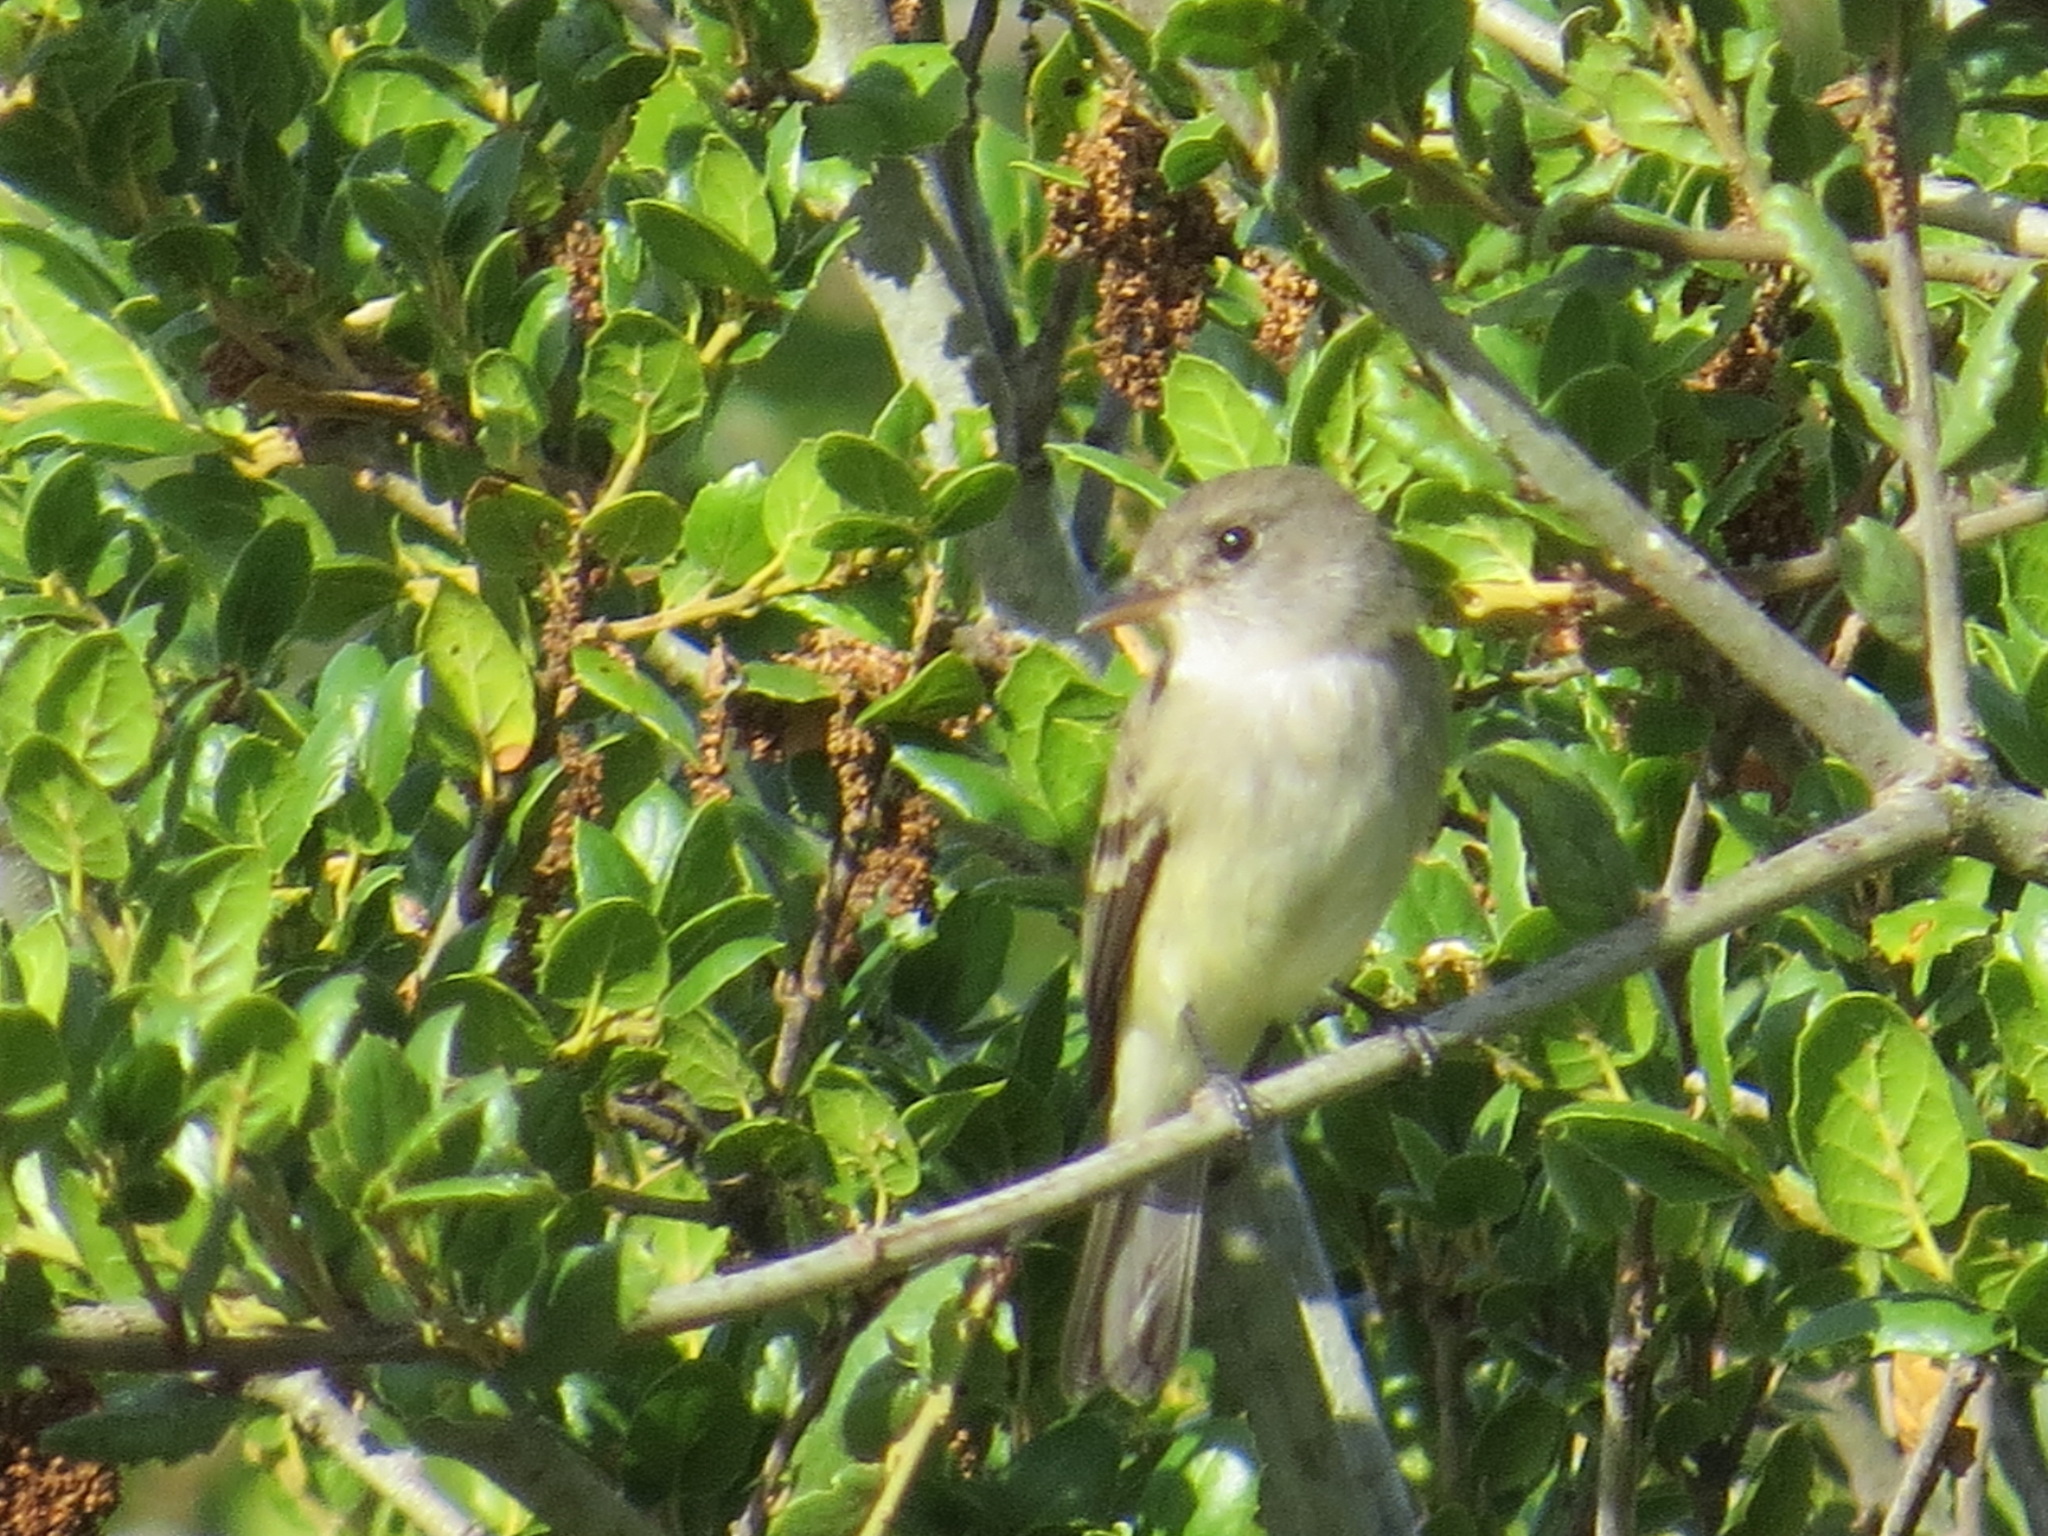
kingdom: Animalia
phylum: Chordata
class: Aves
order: Passeriformes
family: Tyrannidae
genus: Empidonax
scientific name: Empidonax traillii
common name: Willow flycatcher
